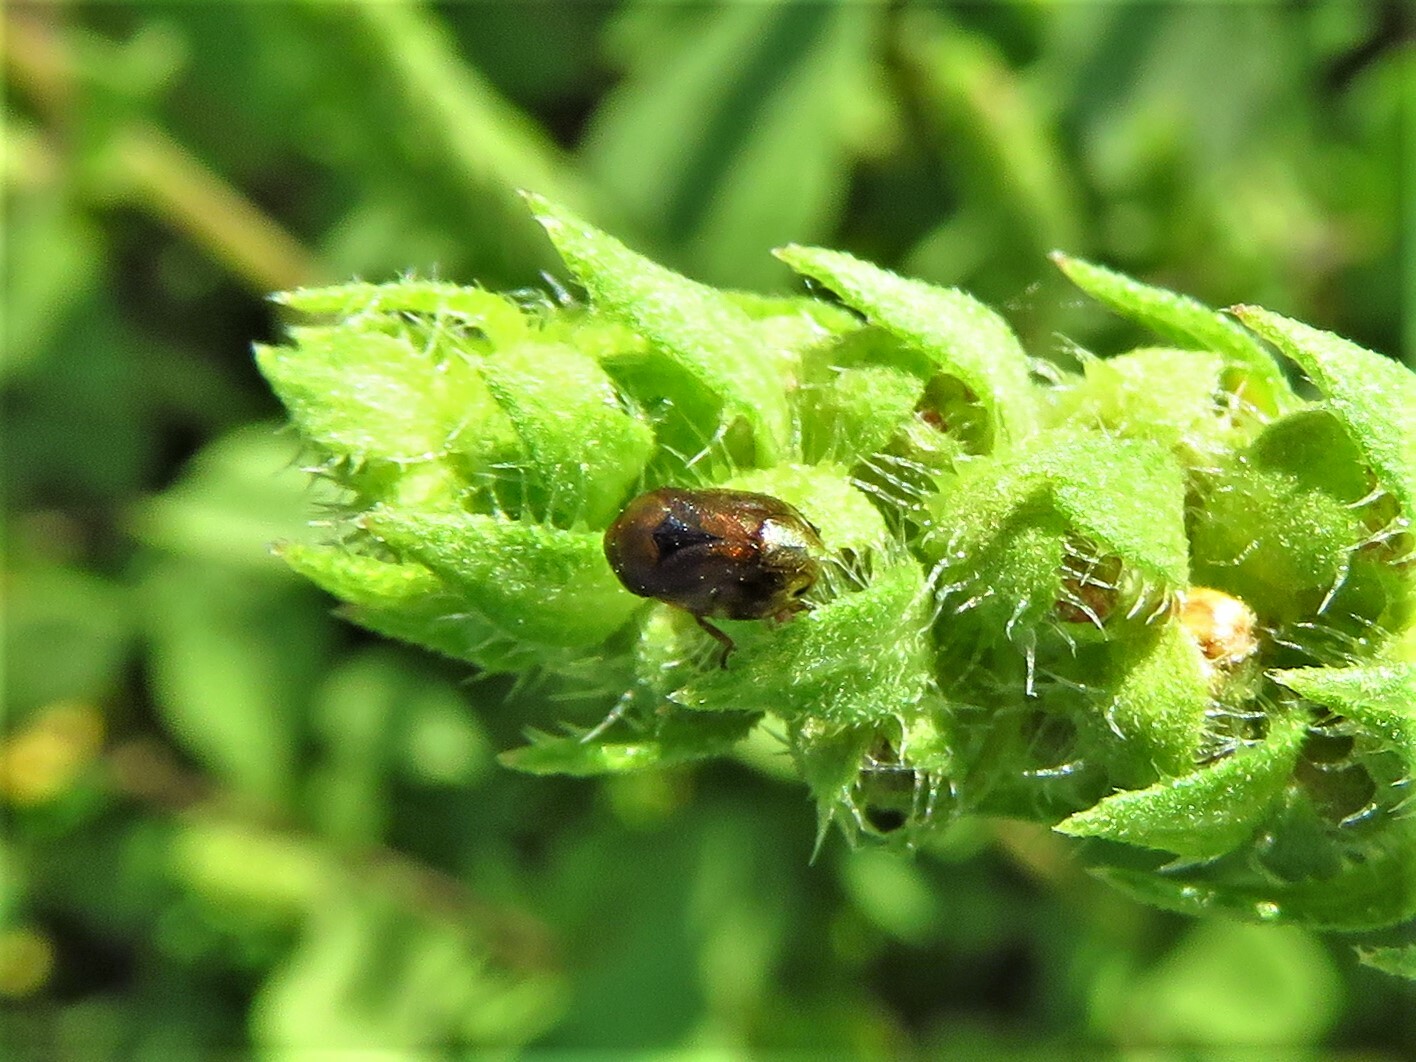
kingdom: Animalia
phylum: Arthropoda
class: Insecta
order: Hemiptera
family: Clastopteridae
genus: Clastoptera
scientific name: Clastoptera xanthocephala
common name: Sunflower spittlebug
